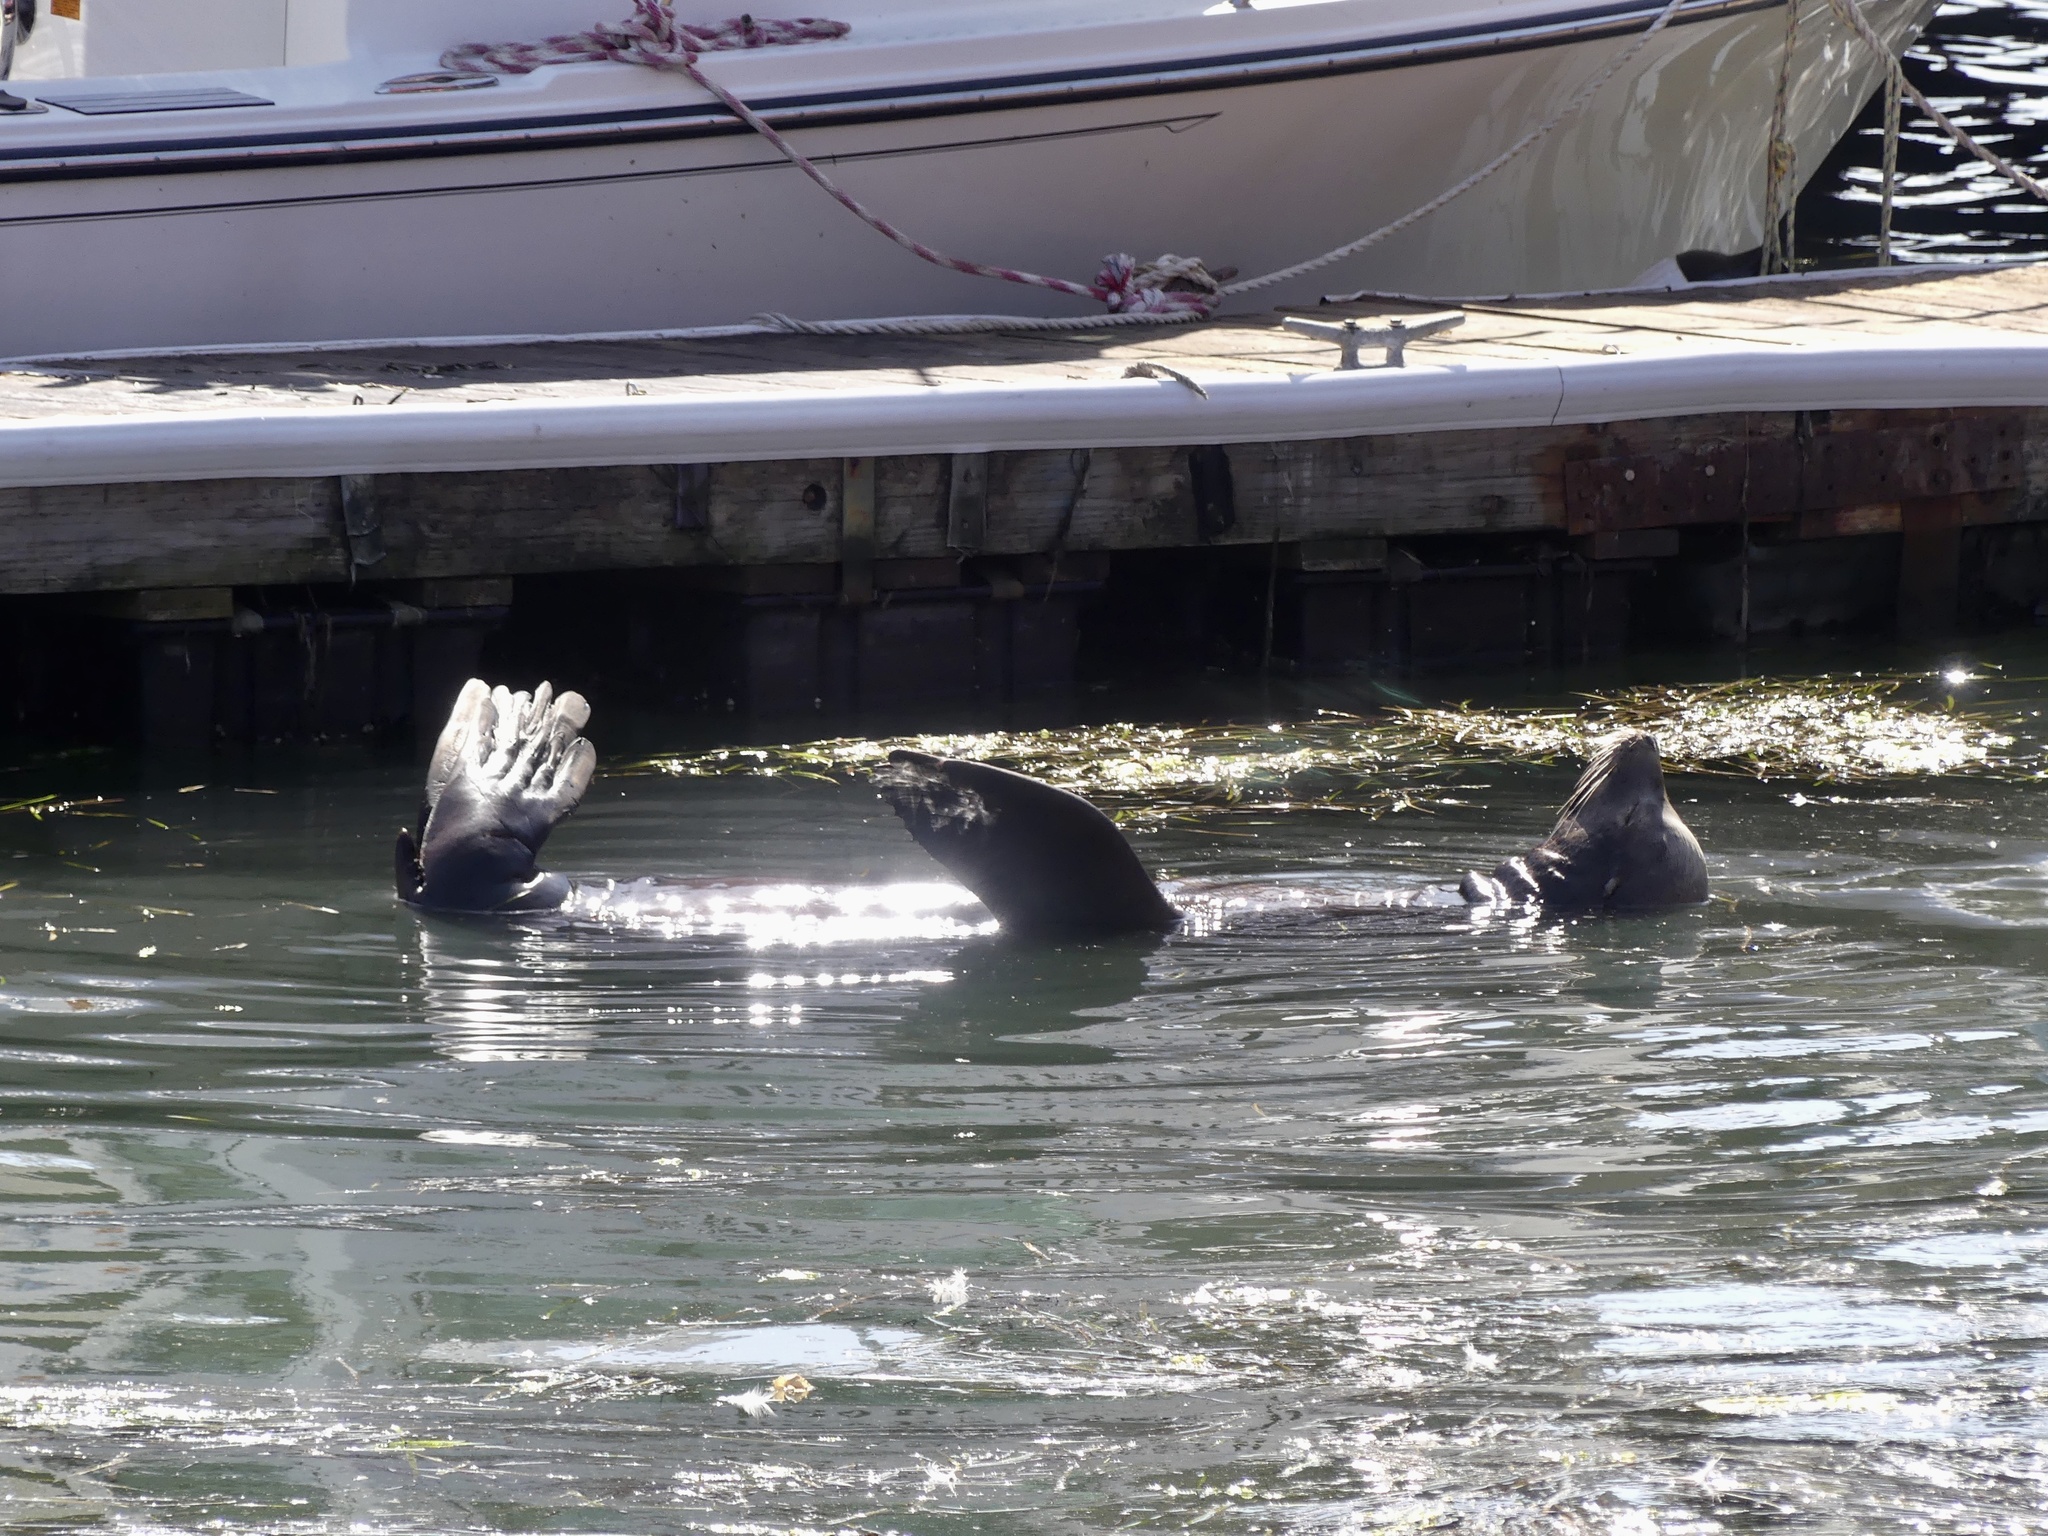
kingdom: Animalia
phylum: Chordata
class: Mammalia
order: Carnivora
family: Otariidae
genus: Zalophus
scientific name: Zalophus californianus
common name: California sea lion
